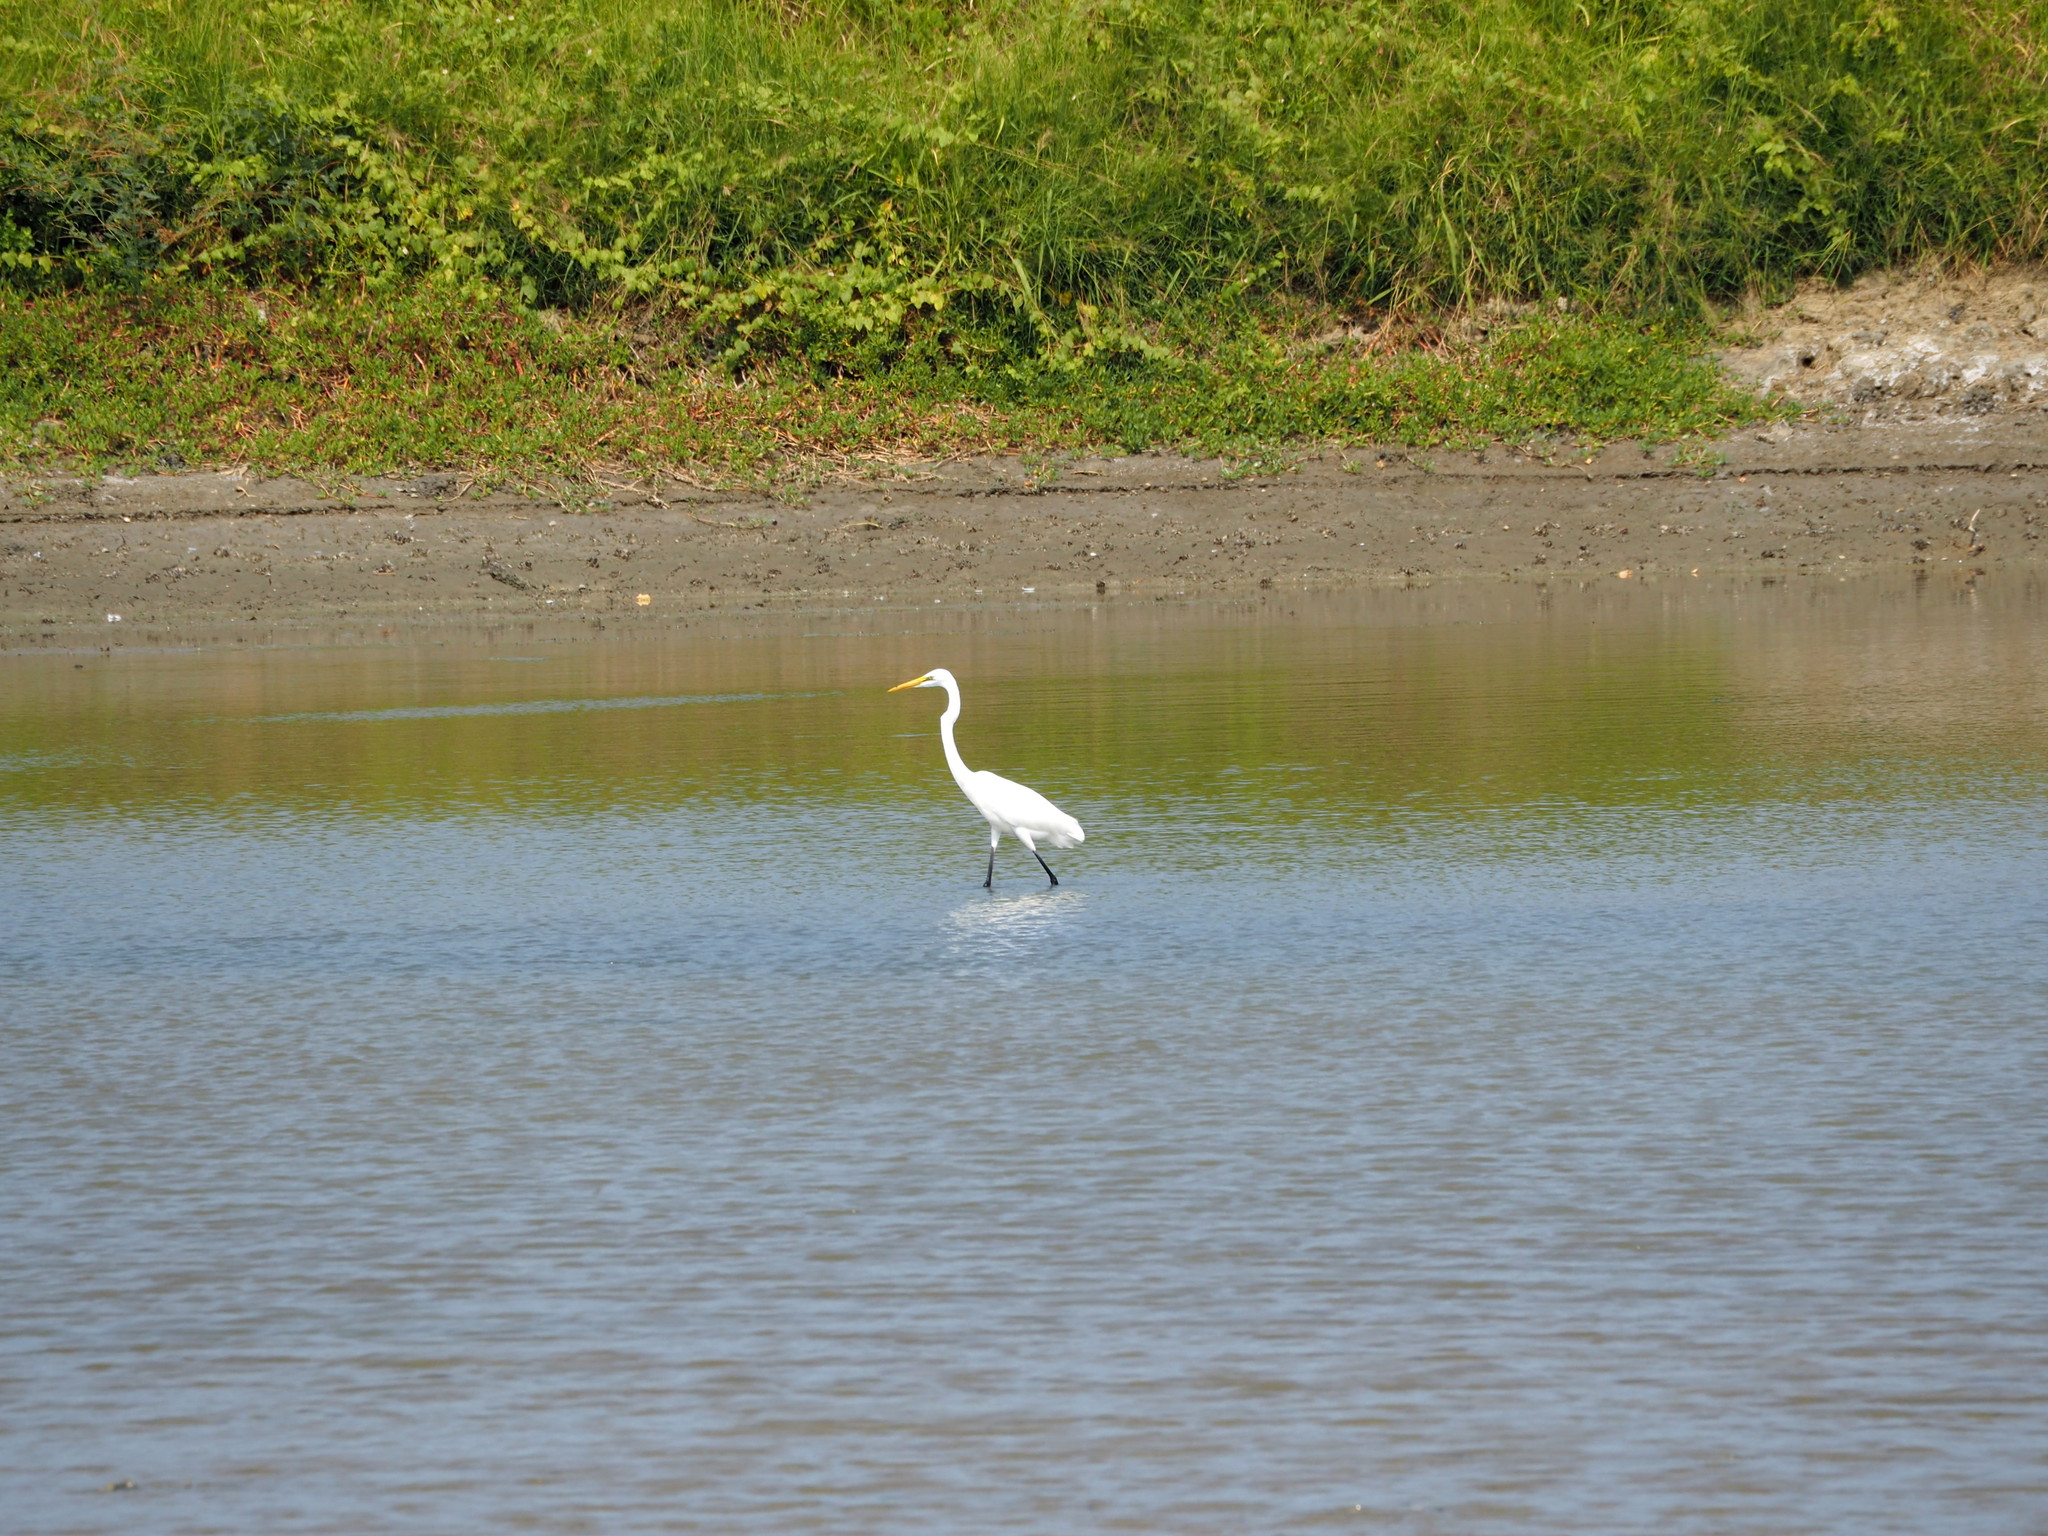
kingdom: Animalia
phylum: Chordata
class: Aves
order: Pelecaniformes
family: Ardeidae
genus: Ardea
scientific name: Ardea alba
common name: Great egret
